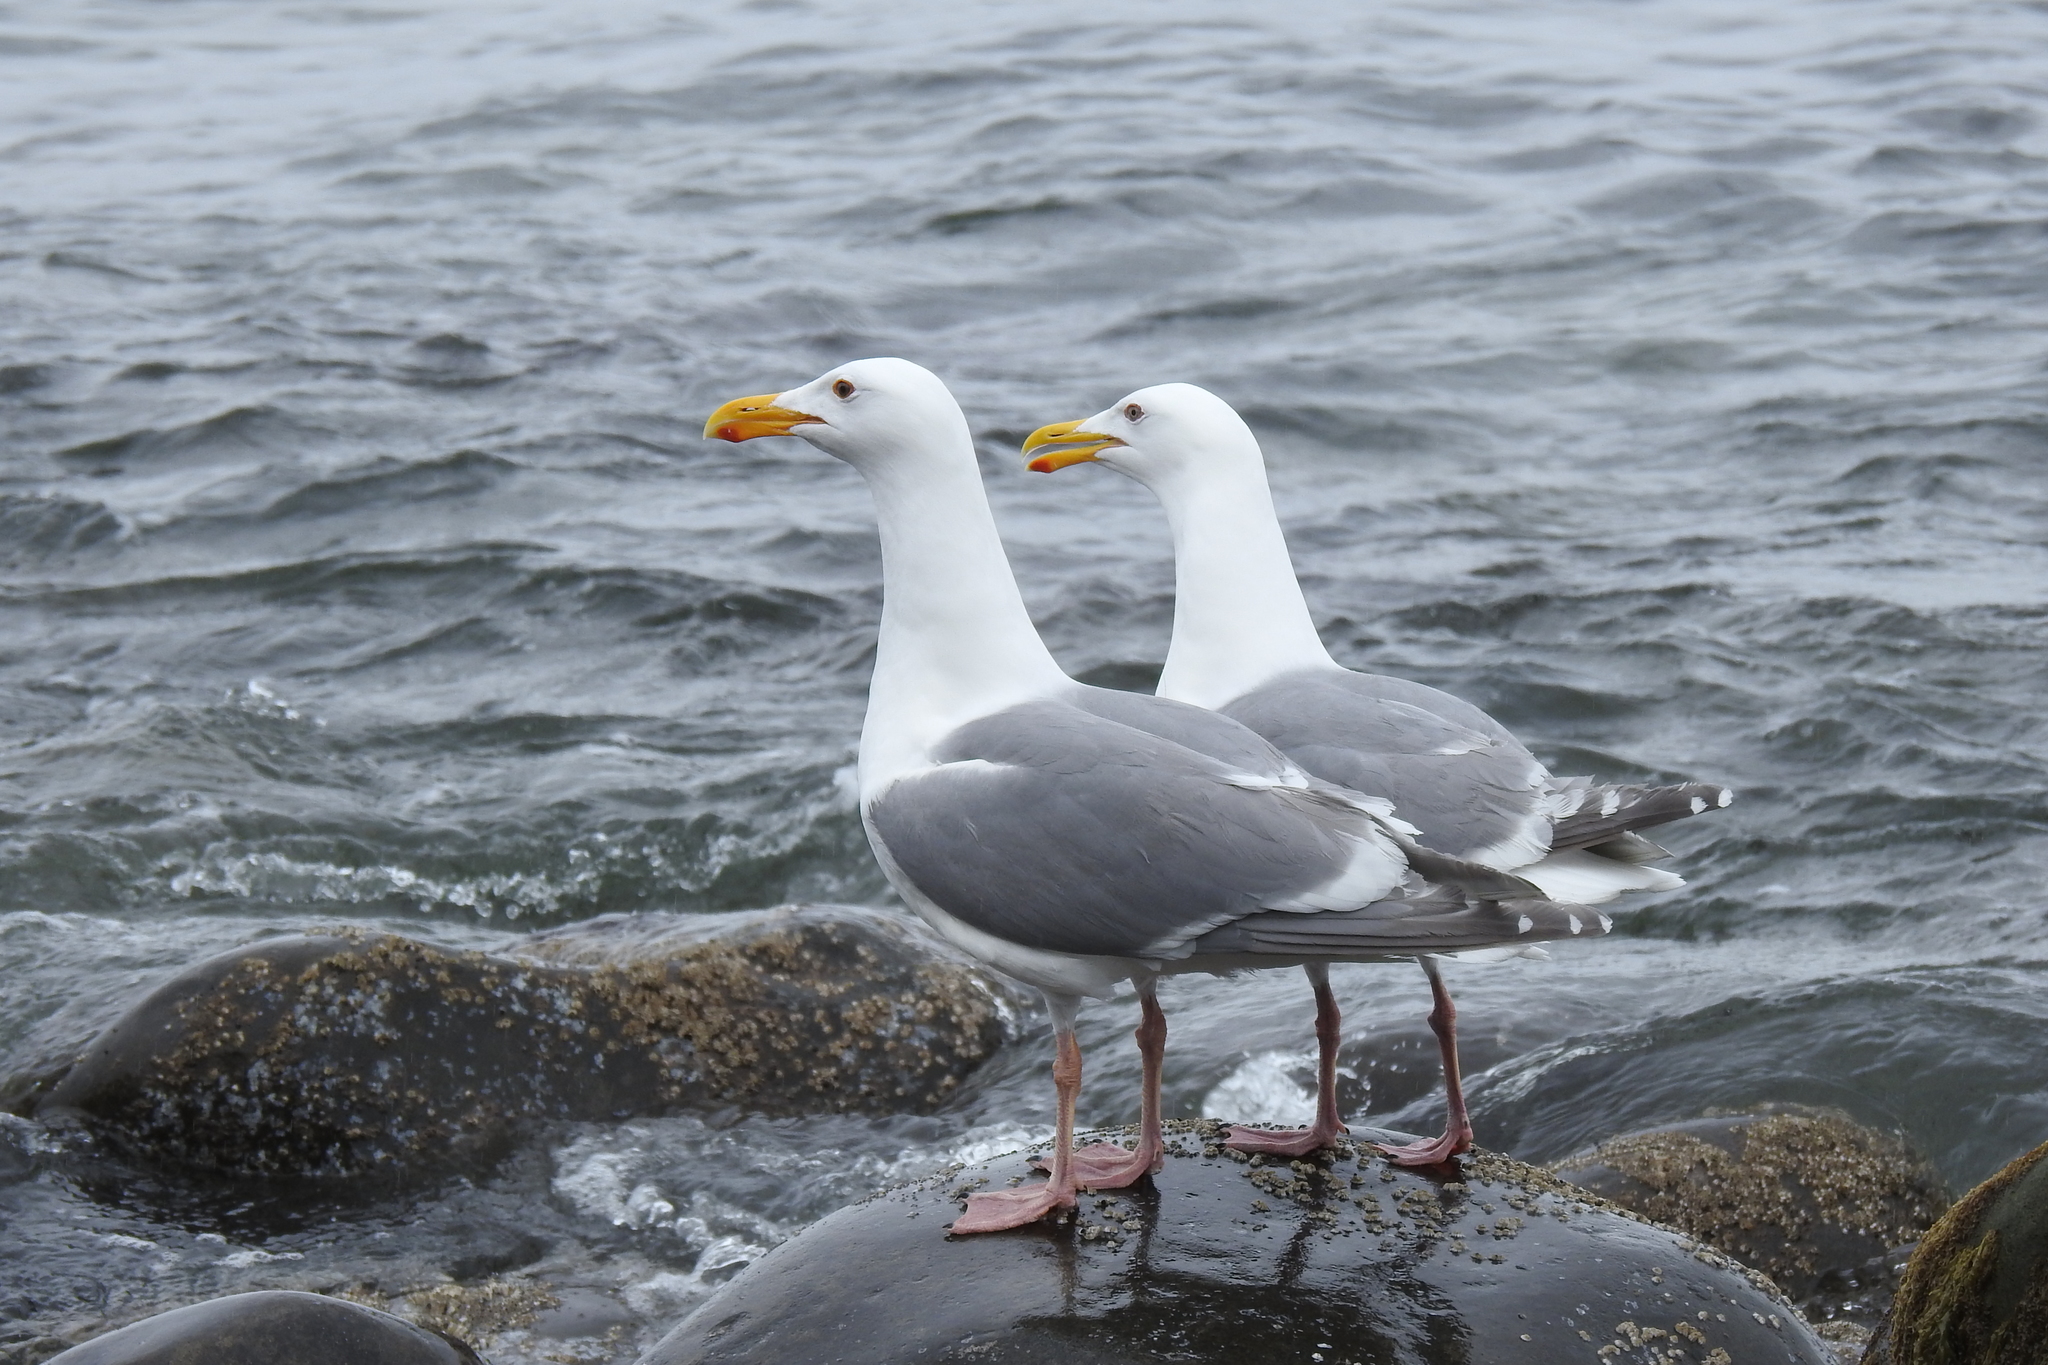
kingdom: Animalia
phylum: Chordata
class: Aves
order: Charadriiformes
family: Laridae
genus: Larus
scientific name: Larus
